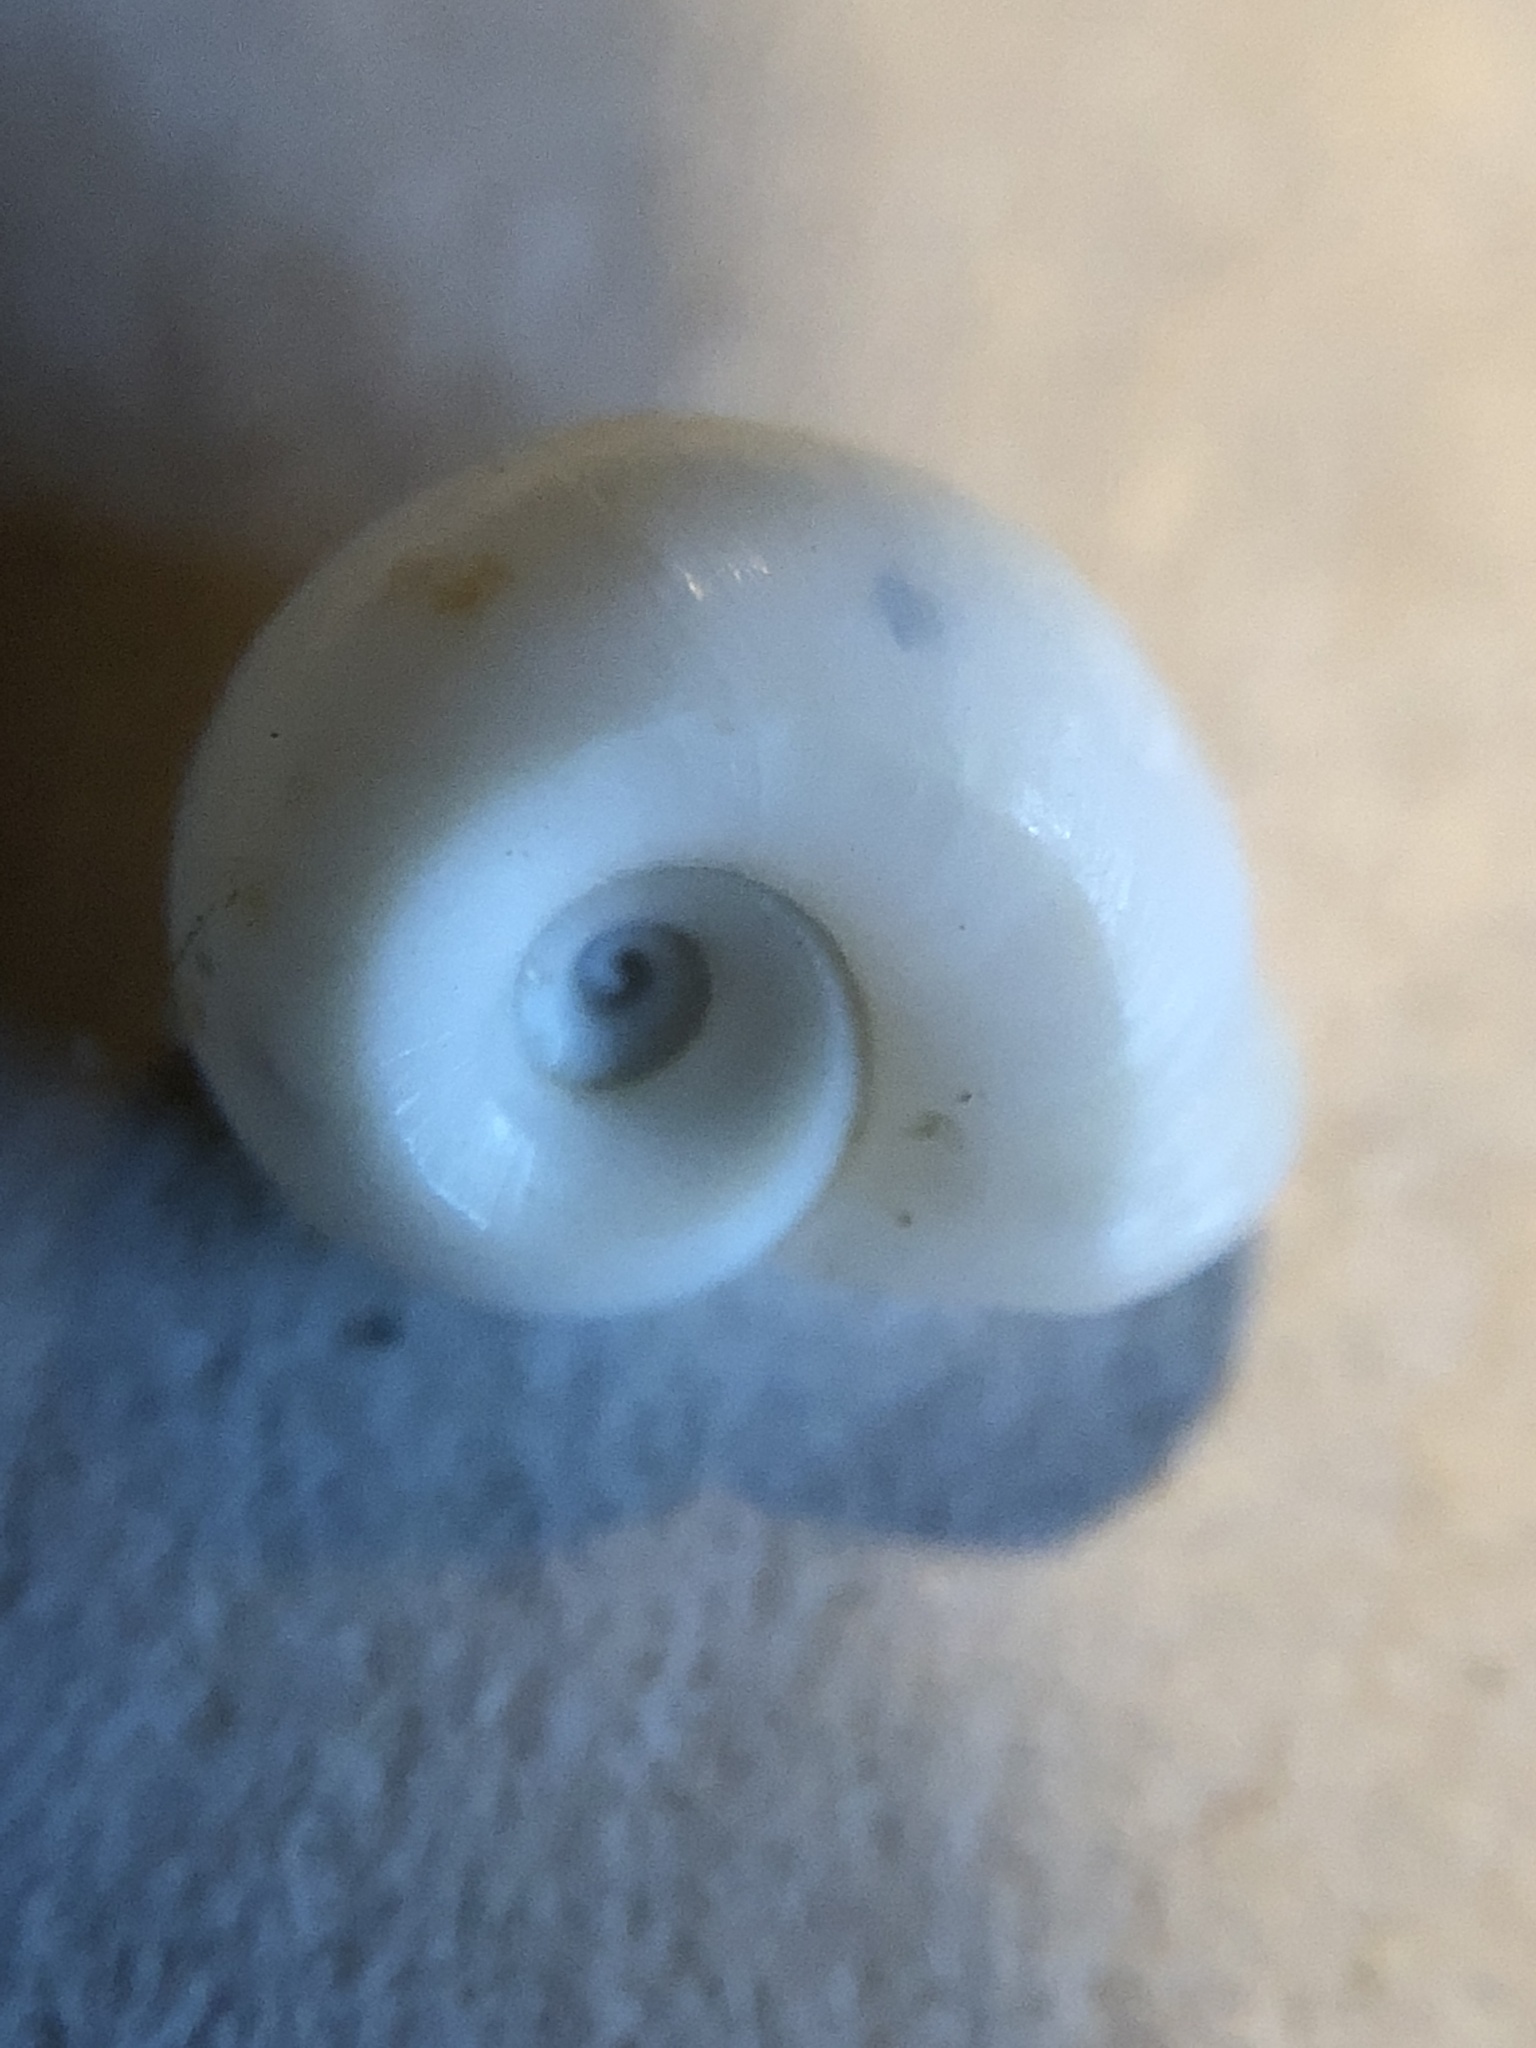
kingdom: Animalia
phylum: Mollusca
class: Gastropoda
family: Planorbidae
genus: Planorbella
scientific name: Planorbella trivolvis
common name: Marsh rams-horn
